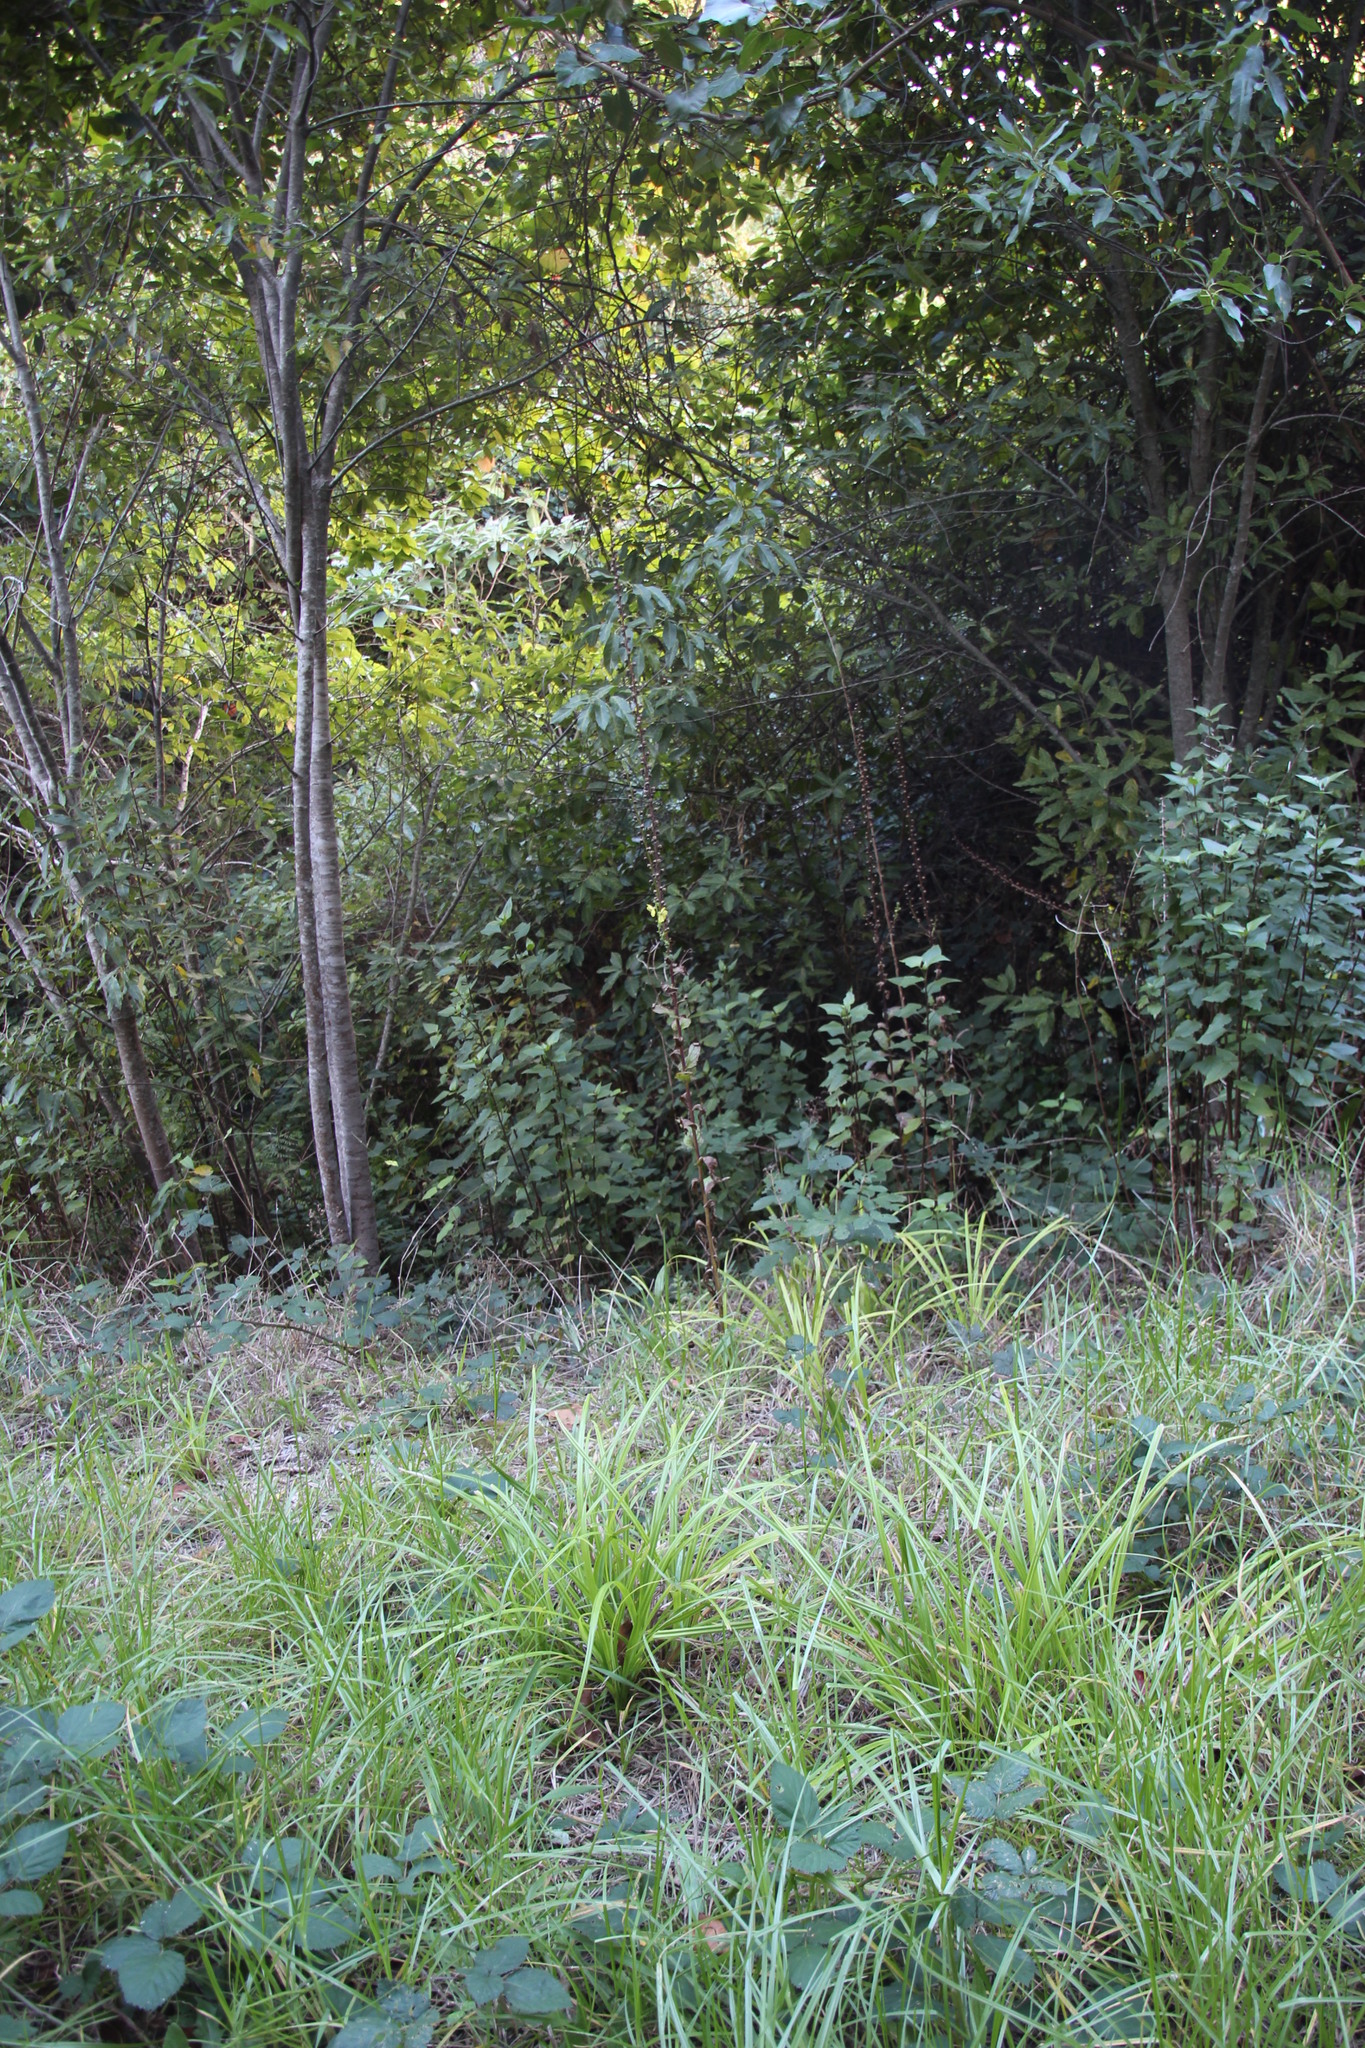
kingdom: Plantae
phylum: Tracheophyta
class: Magnoliopsida
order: Lamiales
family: Scrophulariaceae
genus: Verbascum
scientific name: Verbascum virgatum
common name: Twiggy mullein
